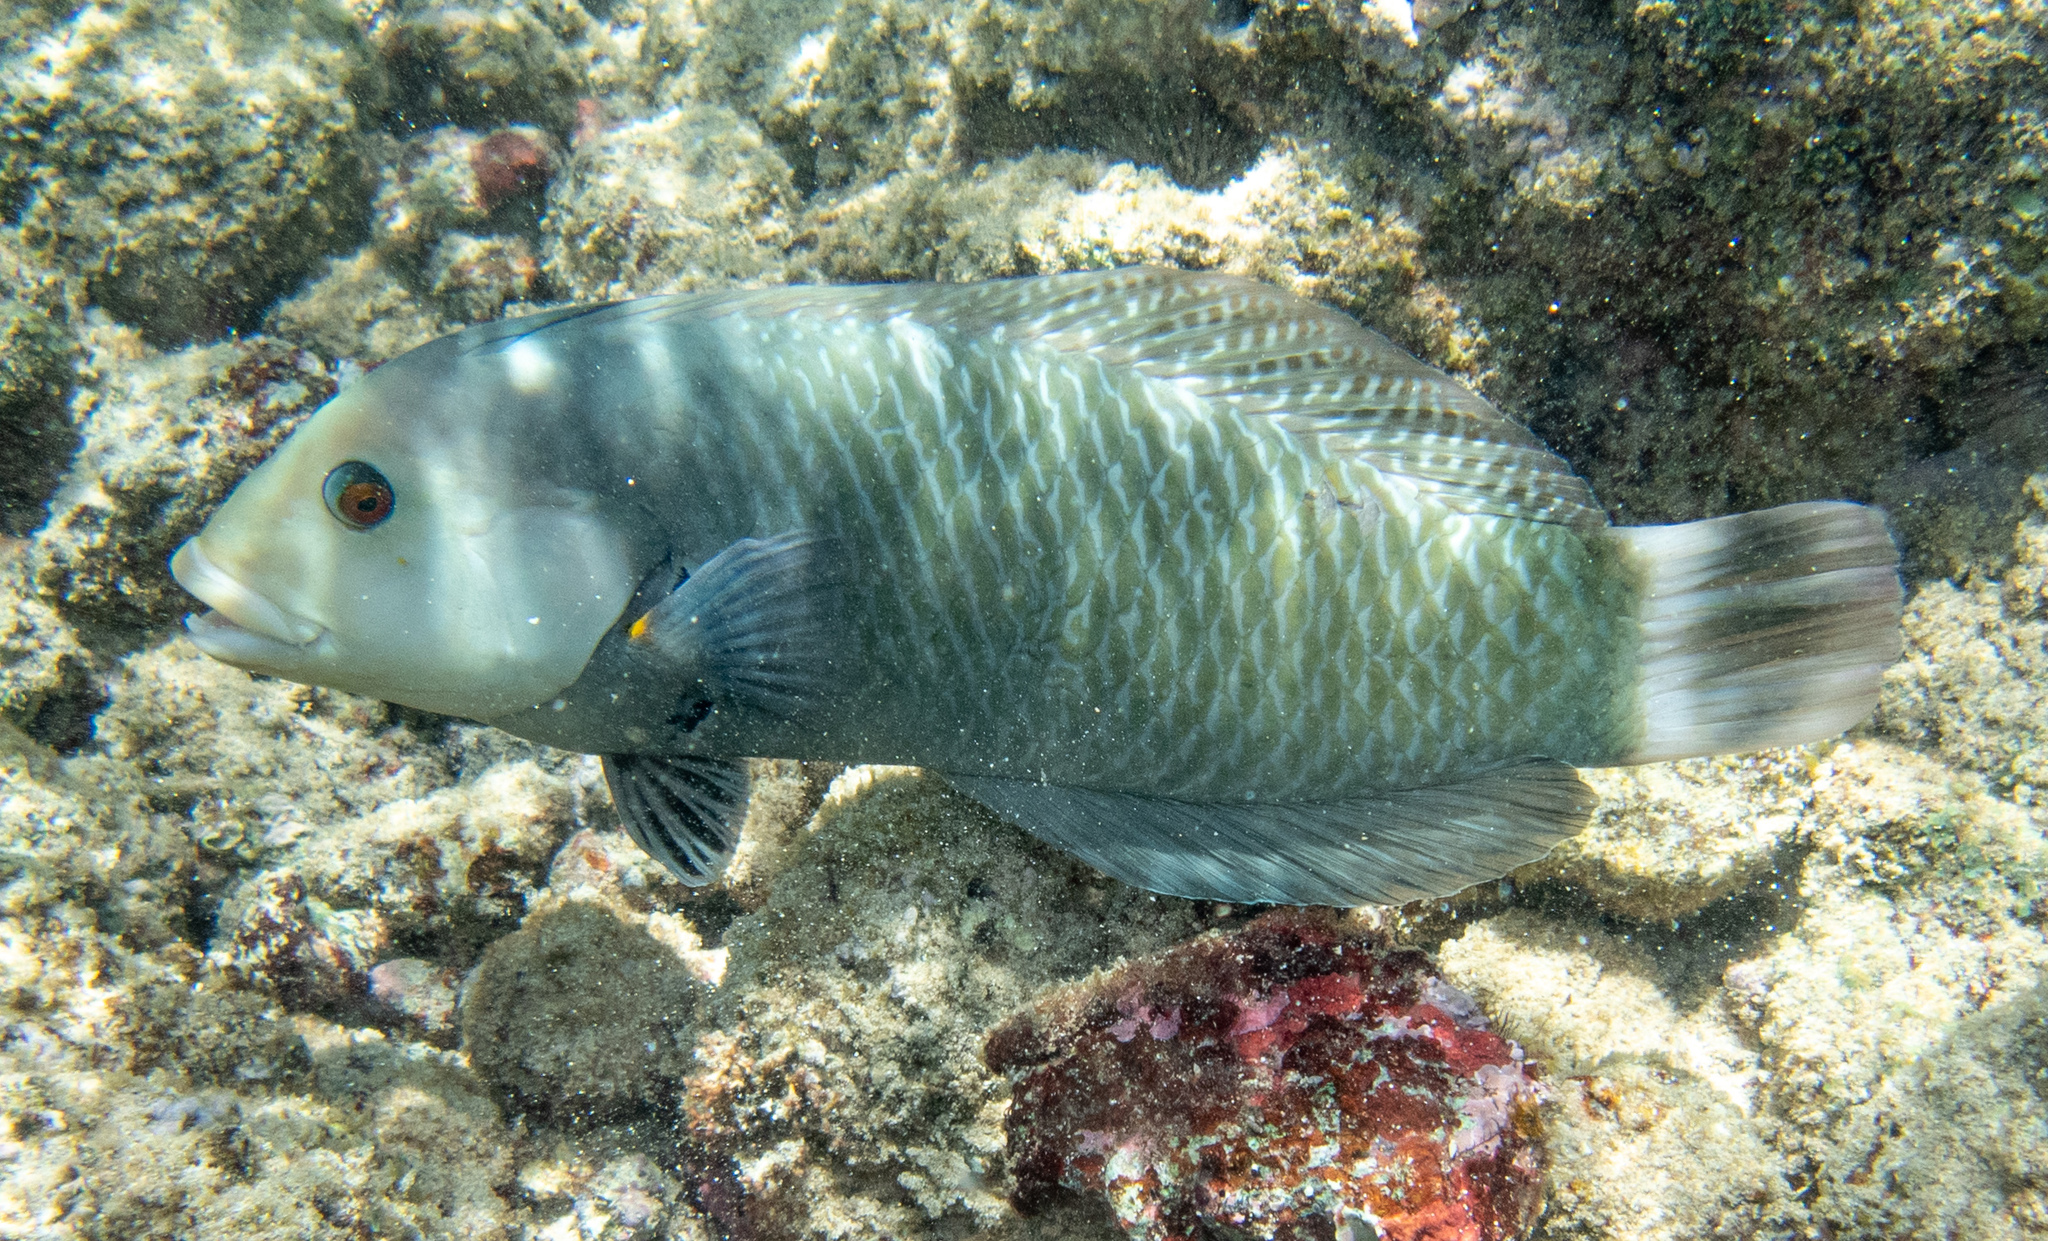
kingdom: Animalia
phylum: Chordata
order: Perciformes
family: Labridae
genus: Novaculichthys
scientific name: Novaculichthys taeniourus
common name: Rockmover wrasse
